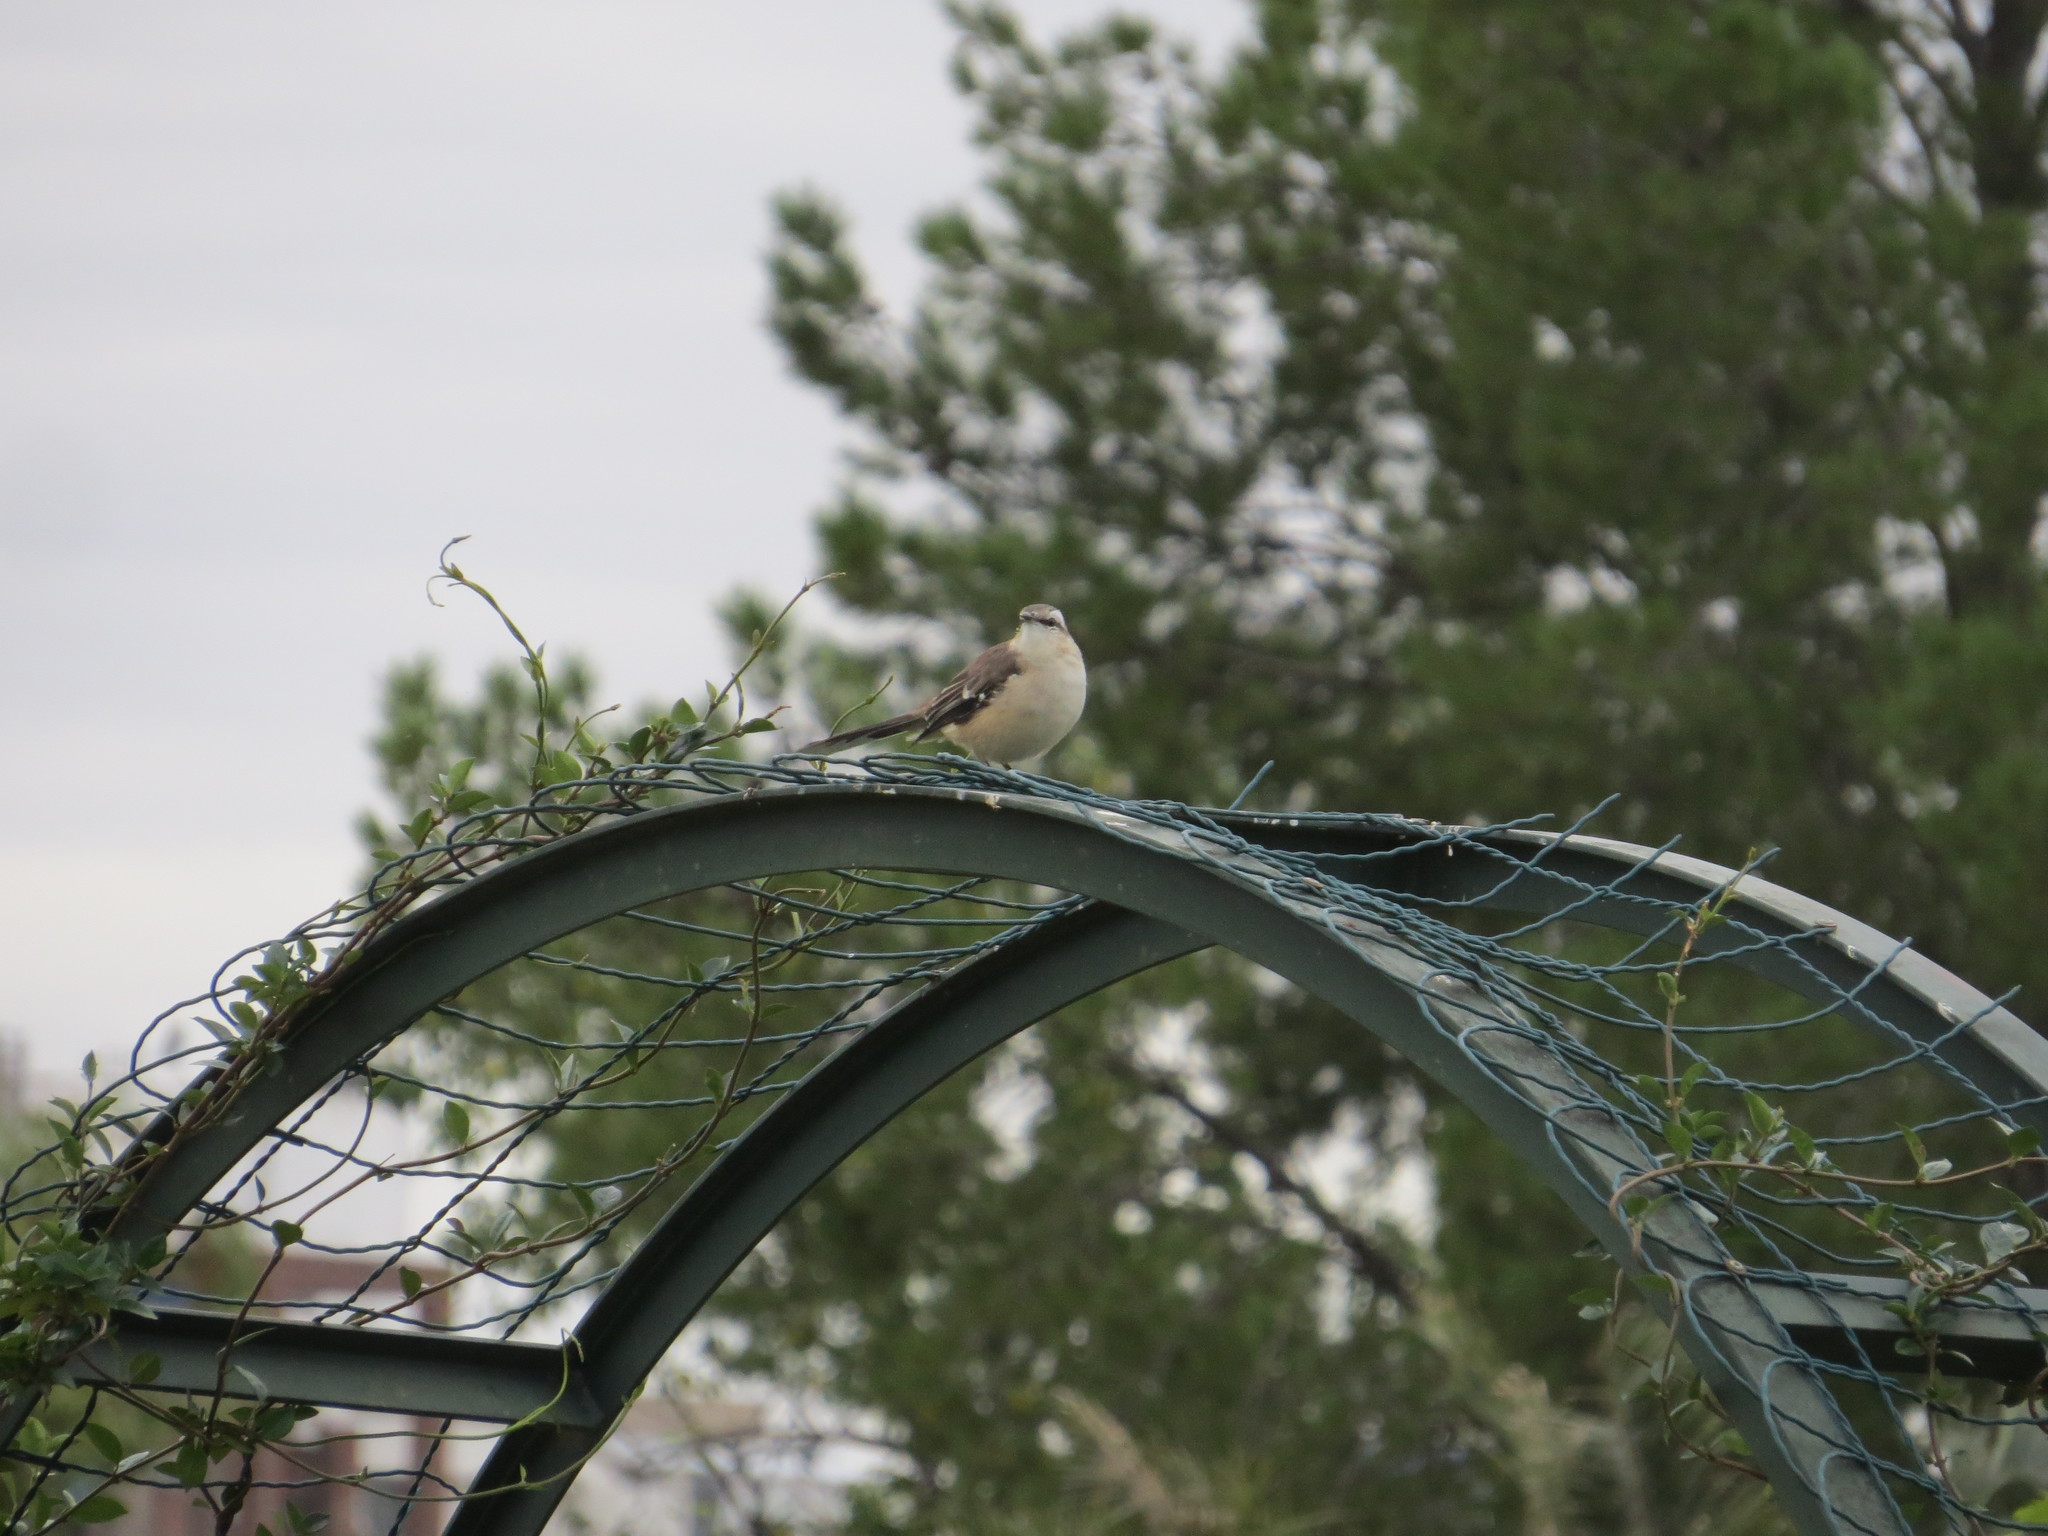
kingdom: Animalia
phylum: Chordata
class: Aves
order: Passeriformes
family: Mimidae
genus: Mimus
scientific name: Mimus saturninus
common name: Chalk-browed mockingbird
